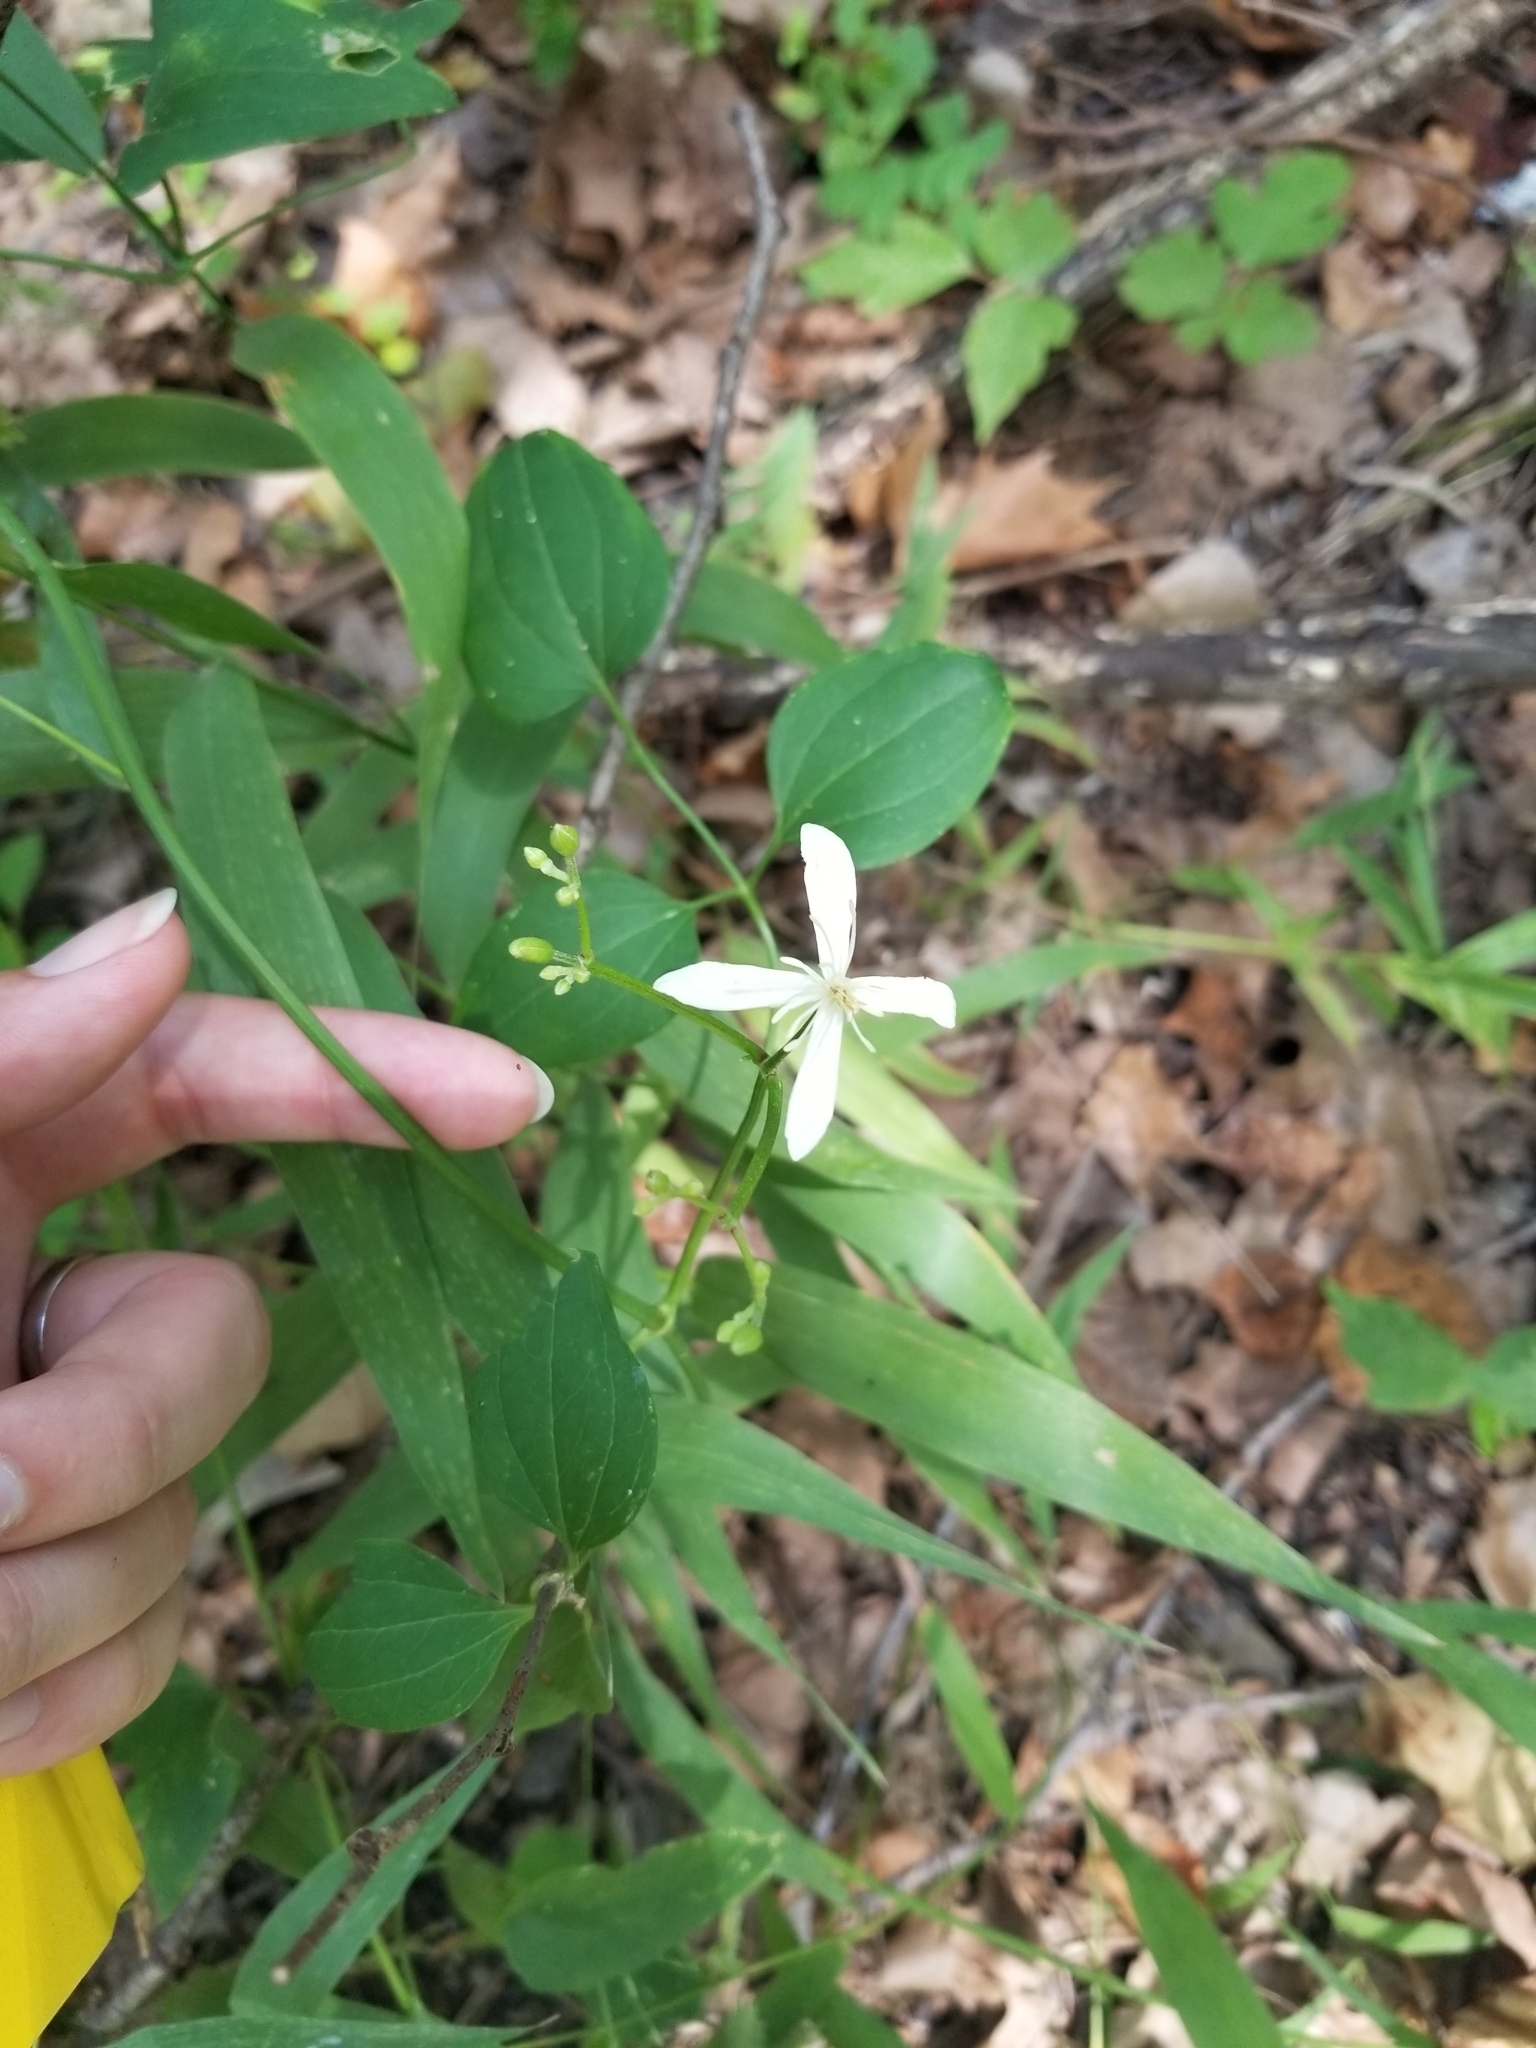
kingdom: Plantae
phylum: Tracheophyta
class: Magnoliopsida
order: Ranunculales
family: Ranunculaceae
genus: Clematis
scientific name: Clematis terniflora
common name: Sweet autumn clematis
